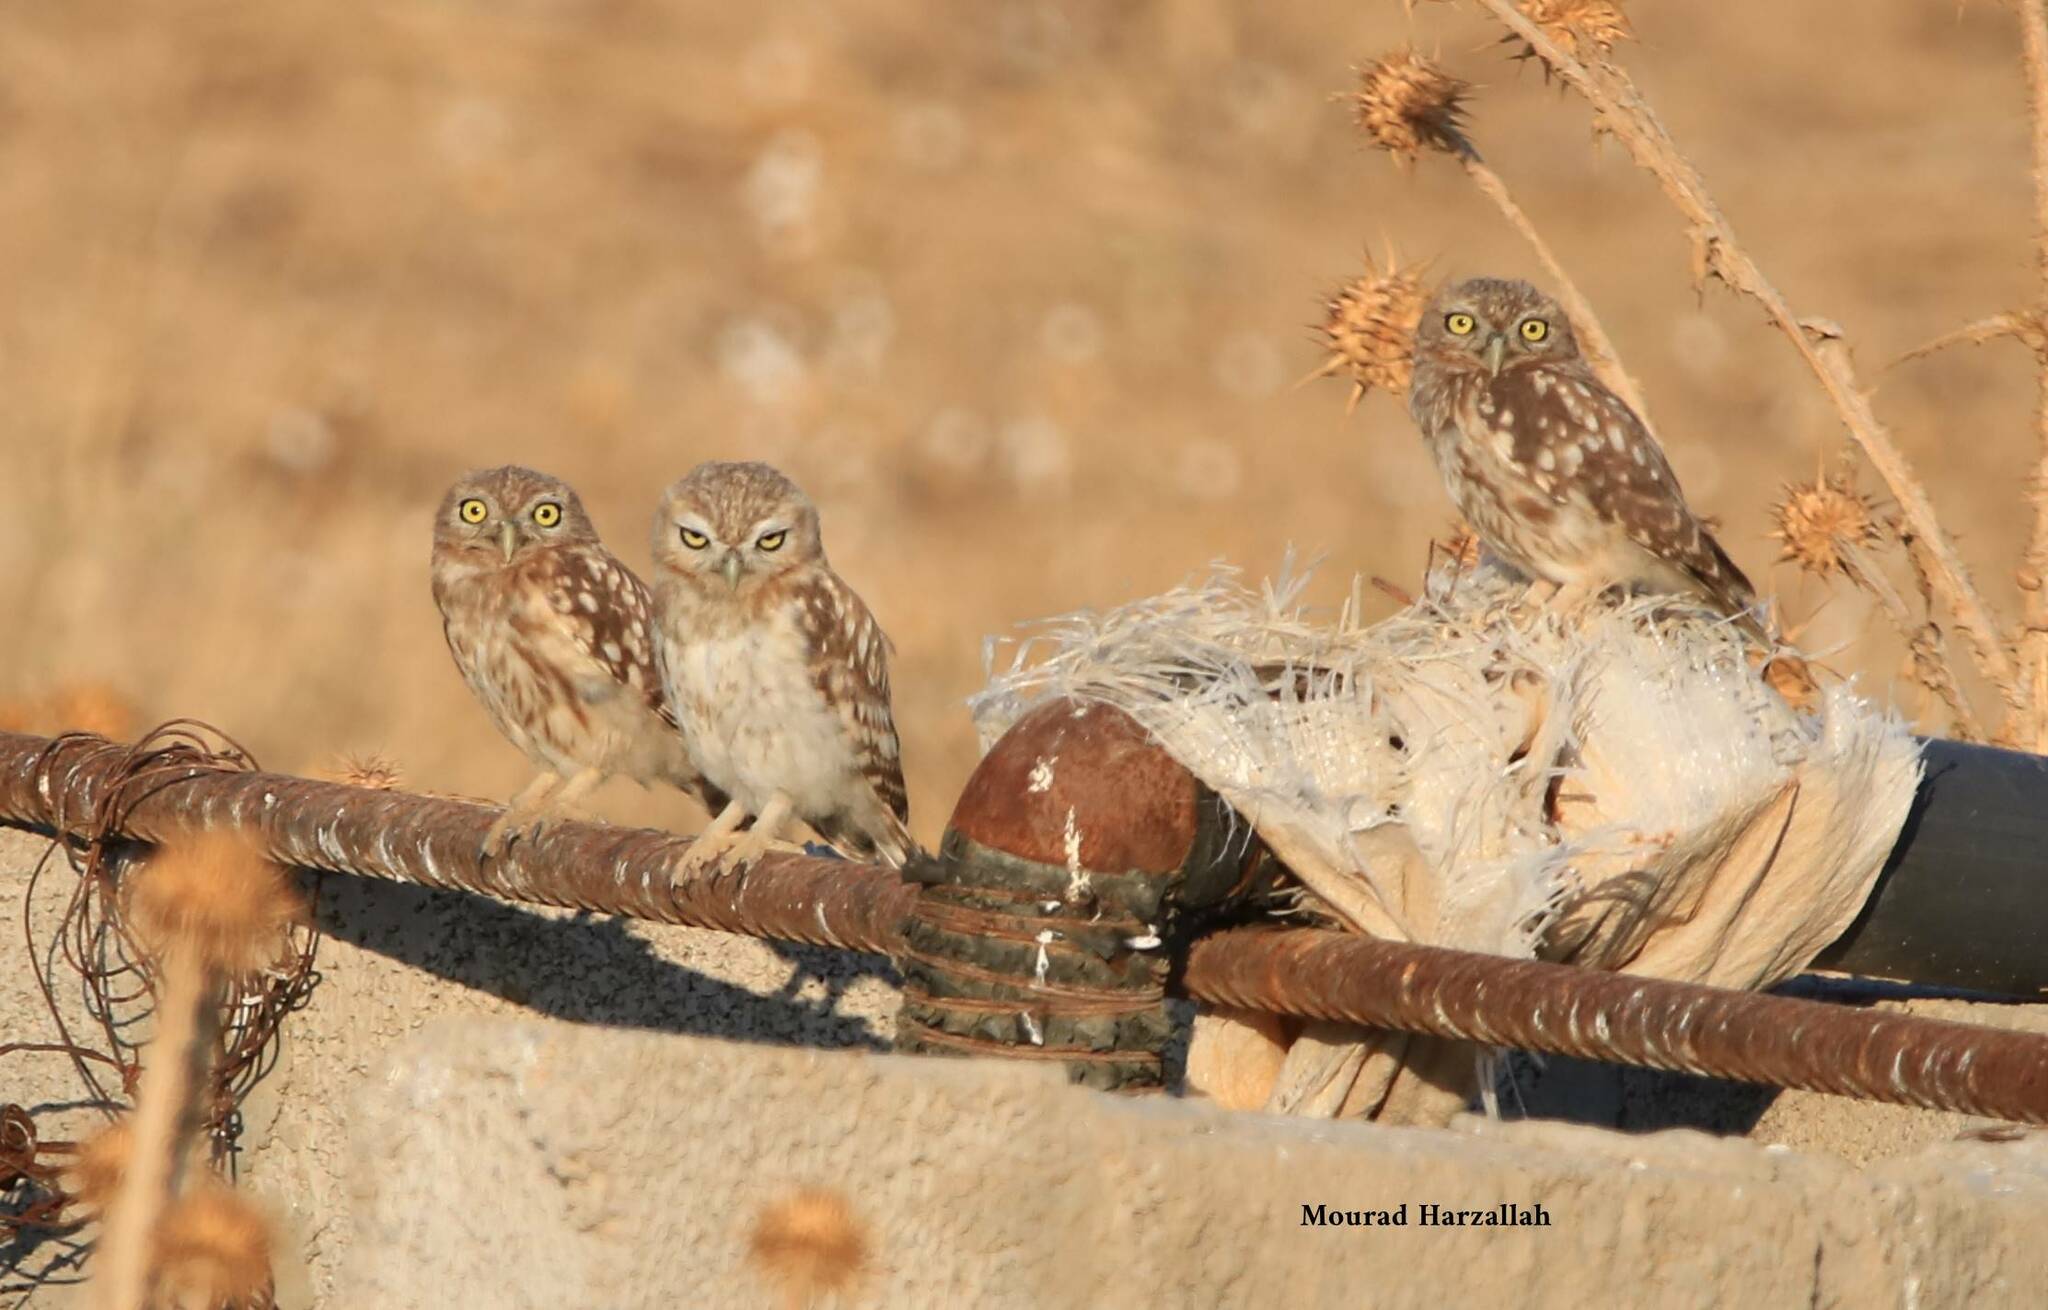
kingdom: Animalia
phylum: Chordata
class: Aves
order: Strigiformes
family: Strigidae
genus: Athene
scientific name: Athene noctua
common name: Little owl
